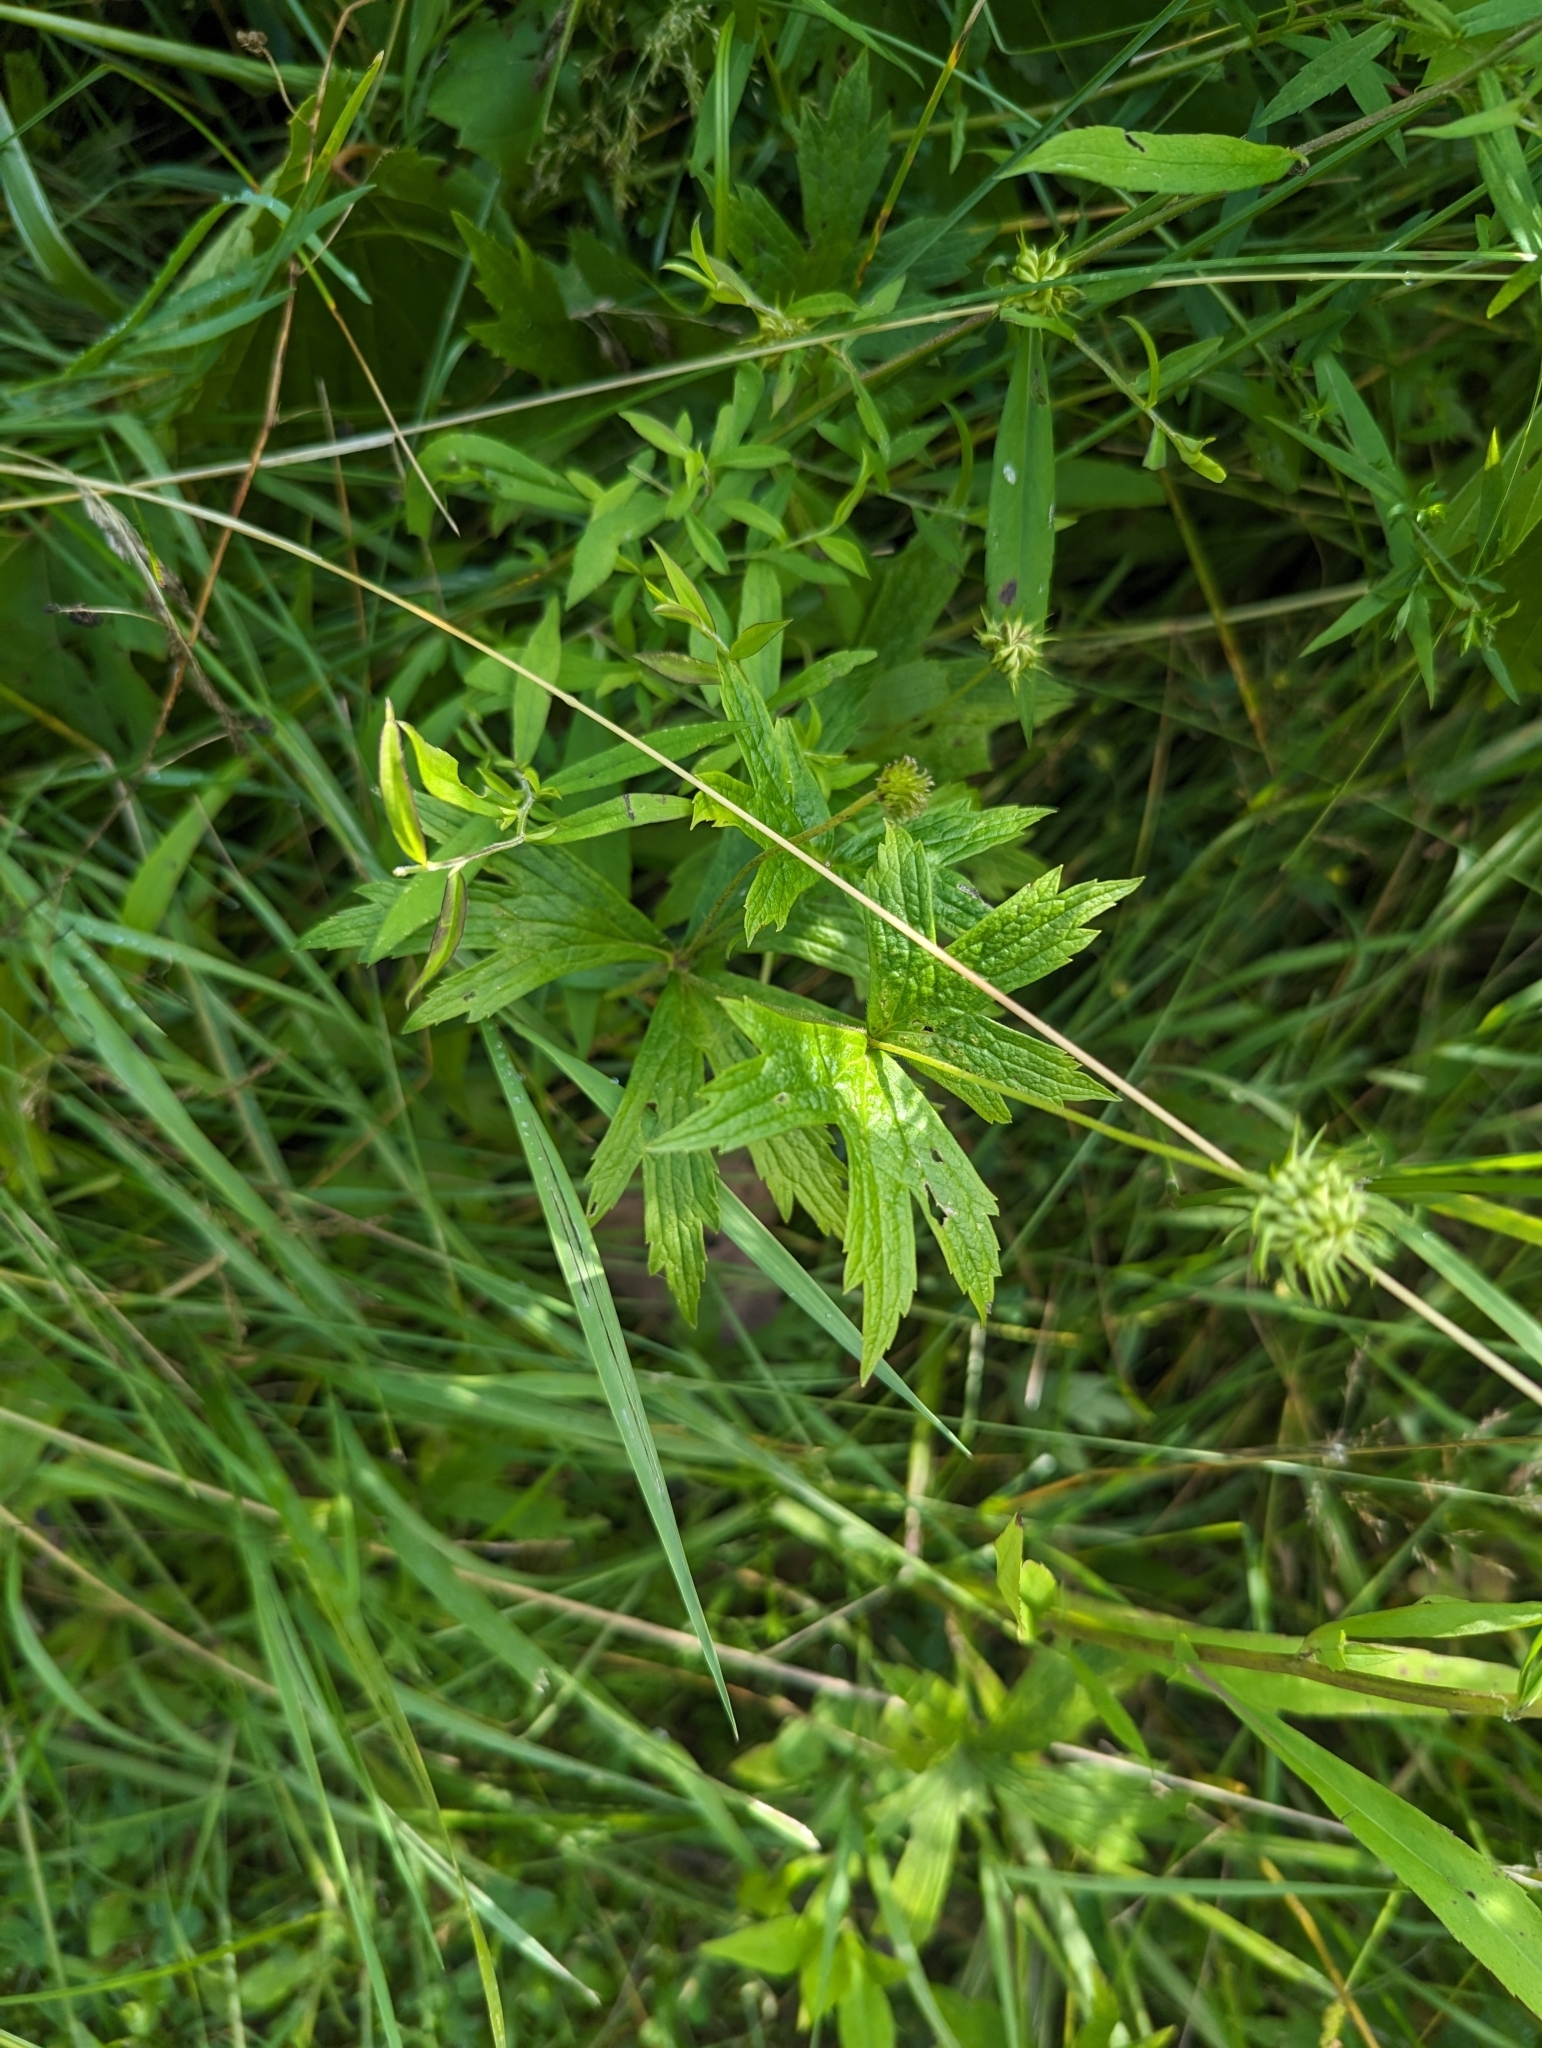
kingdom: Plantae
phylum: Tracheophyta
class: Magnoliopsida
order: Ranunculales
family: Ranunculaceae
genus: Anemonastrum
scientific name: Anemonastrum canadense
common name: Canada anemone
